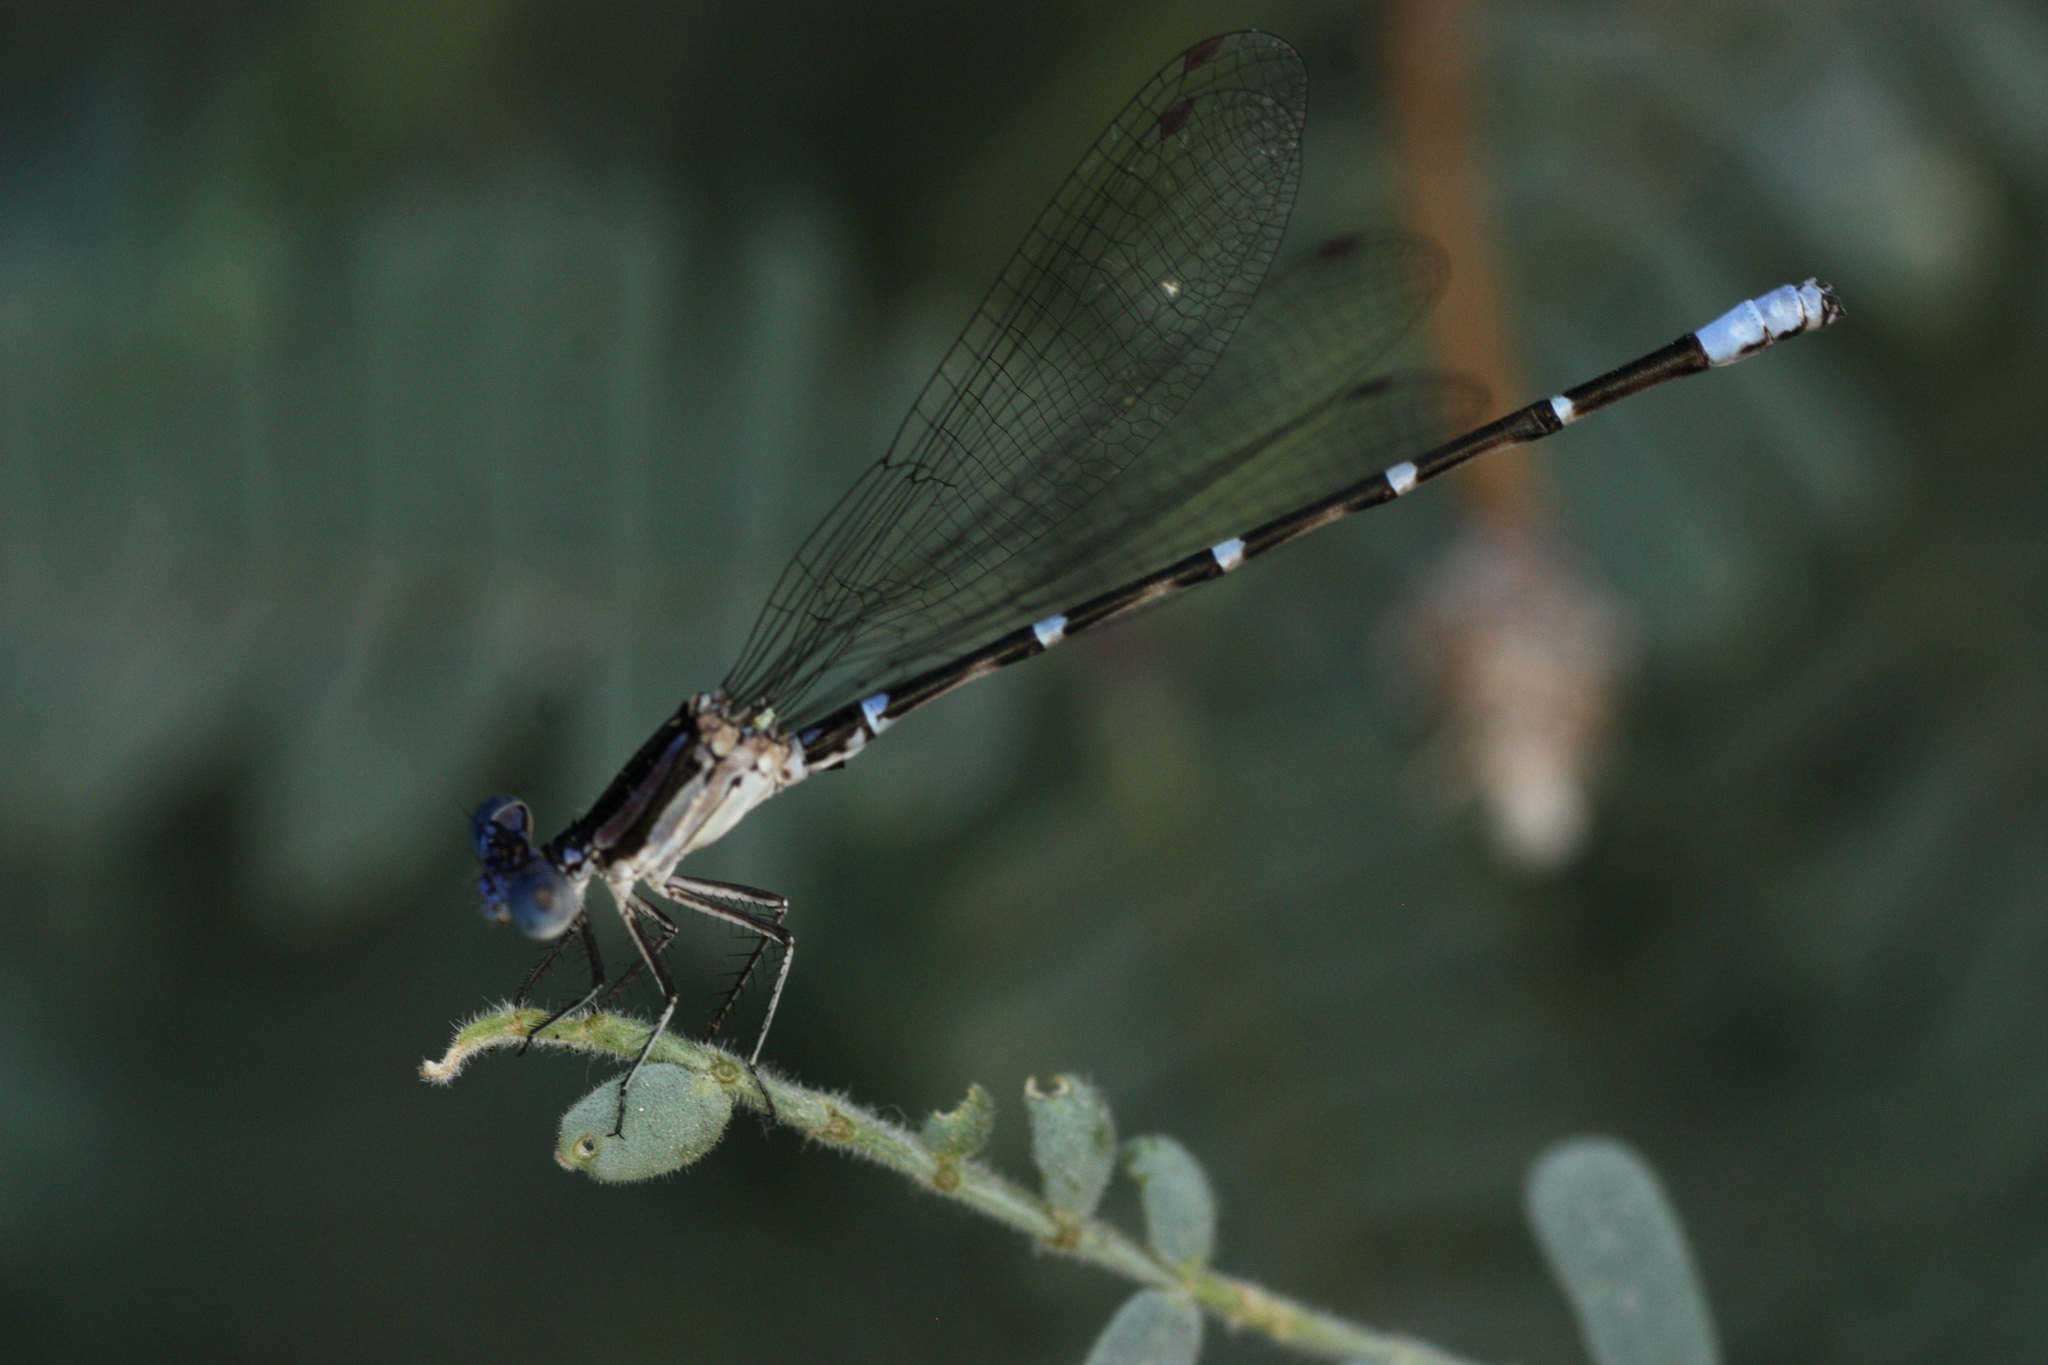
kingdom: Animalia
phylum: Arthropoda
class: Insecta
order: Odonata
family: Coenagrionidae
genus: Argia
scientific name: Argia sedula
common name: Blue-ringed dancer
